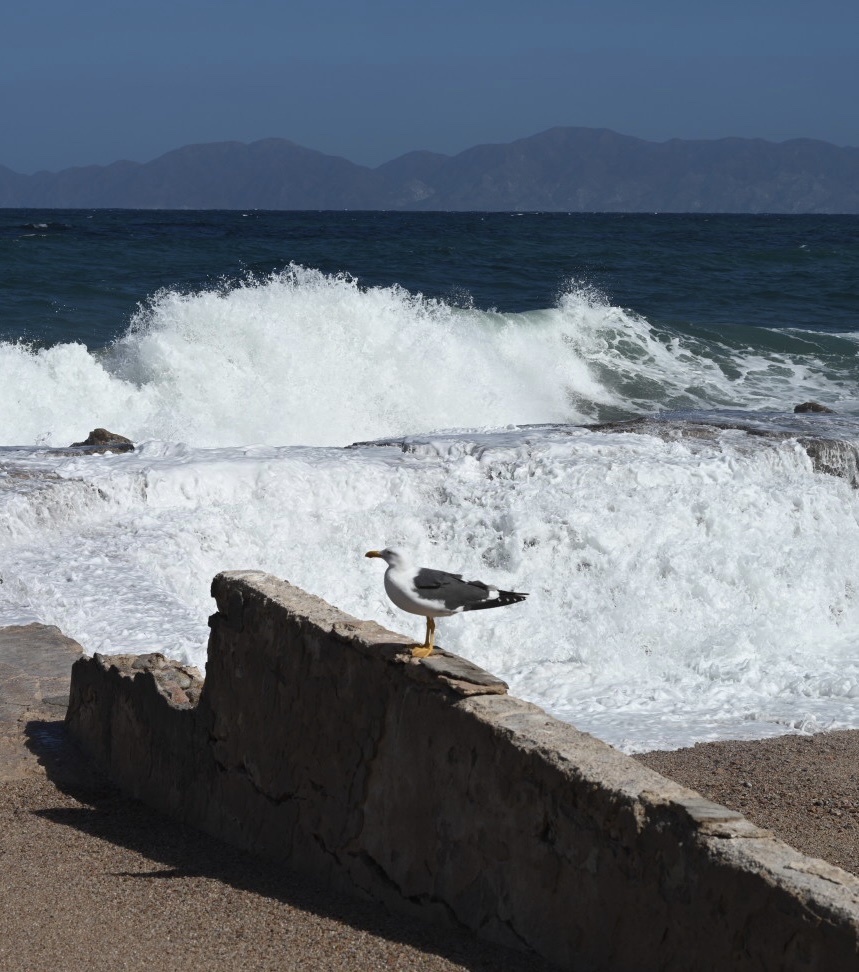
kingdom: Animalia
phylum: Chordata
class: Aves
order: Charadriiformes
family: Laridae
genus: Larus
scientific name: Larus livens
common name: Yellow-footed gull
